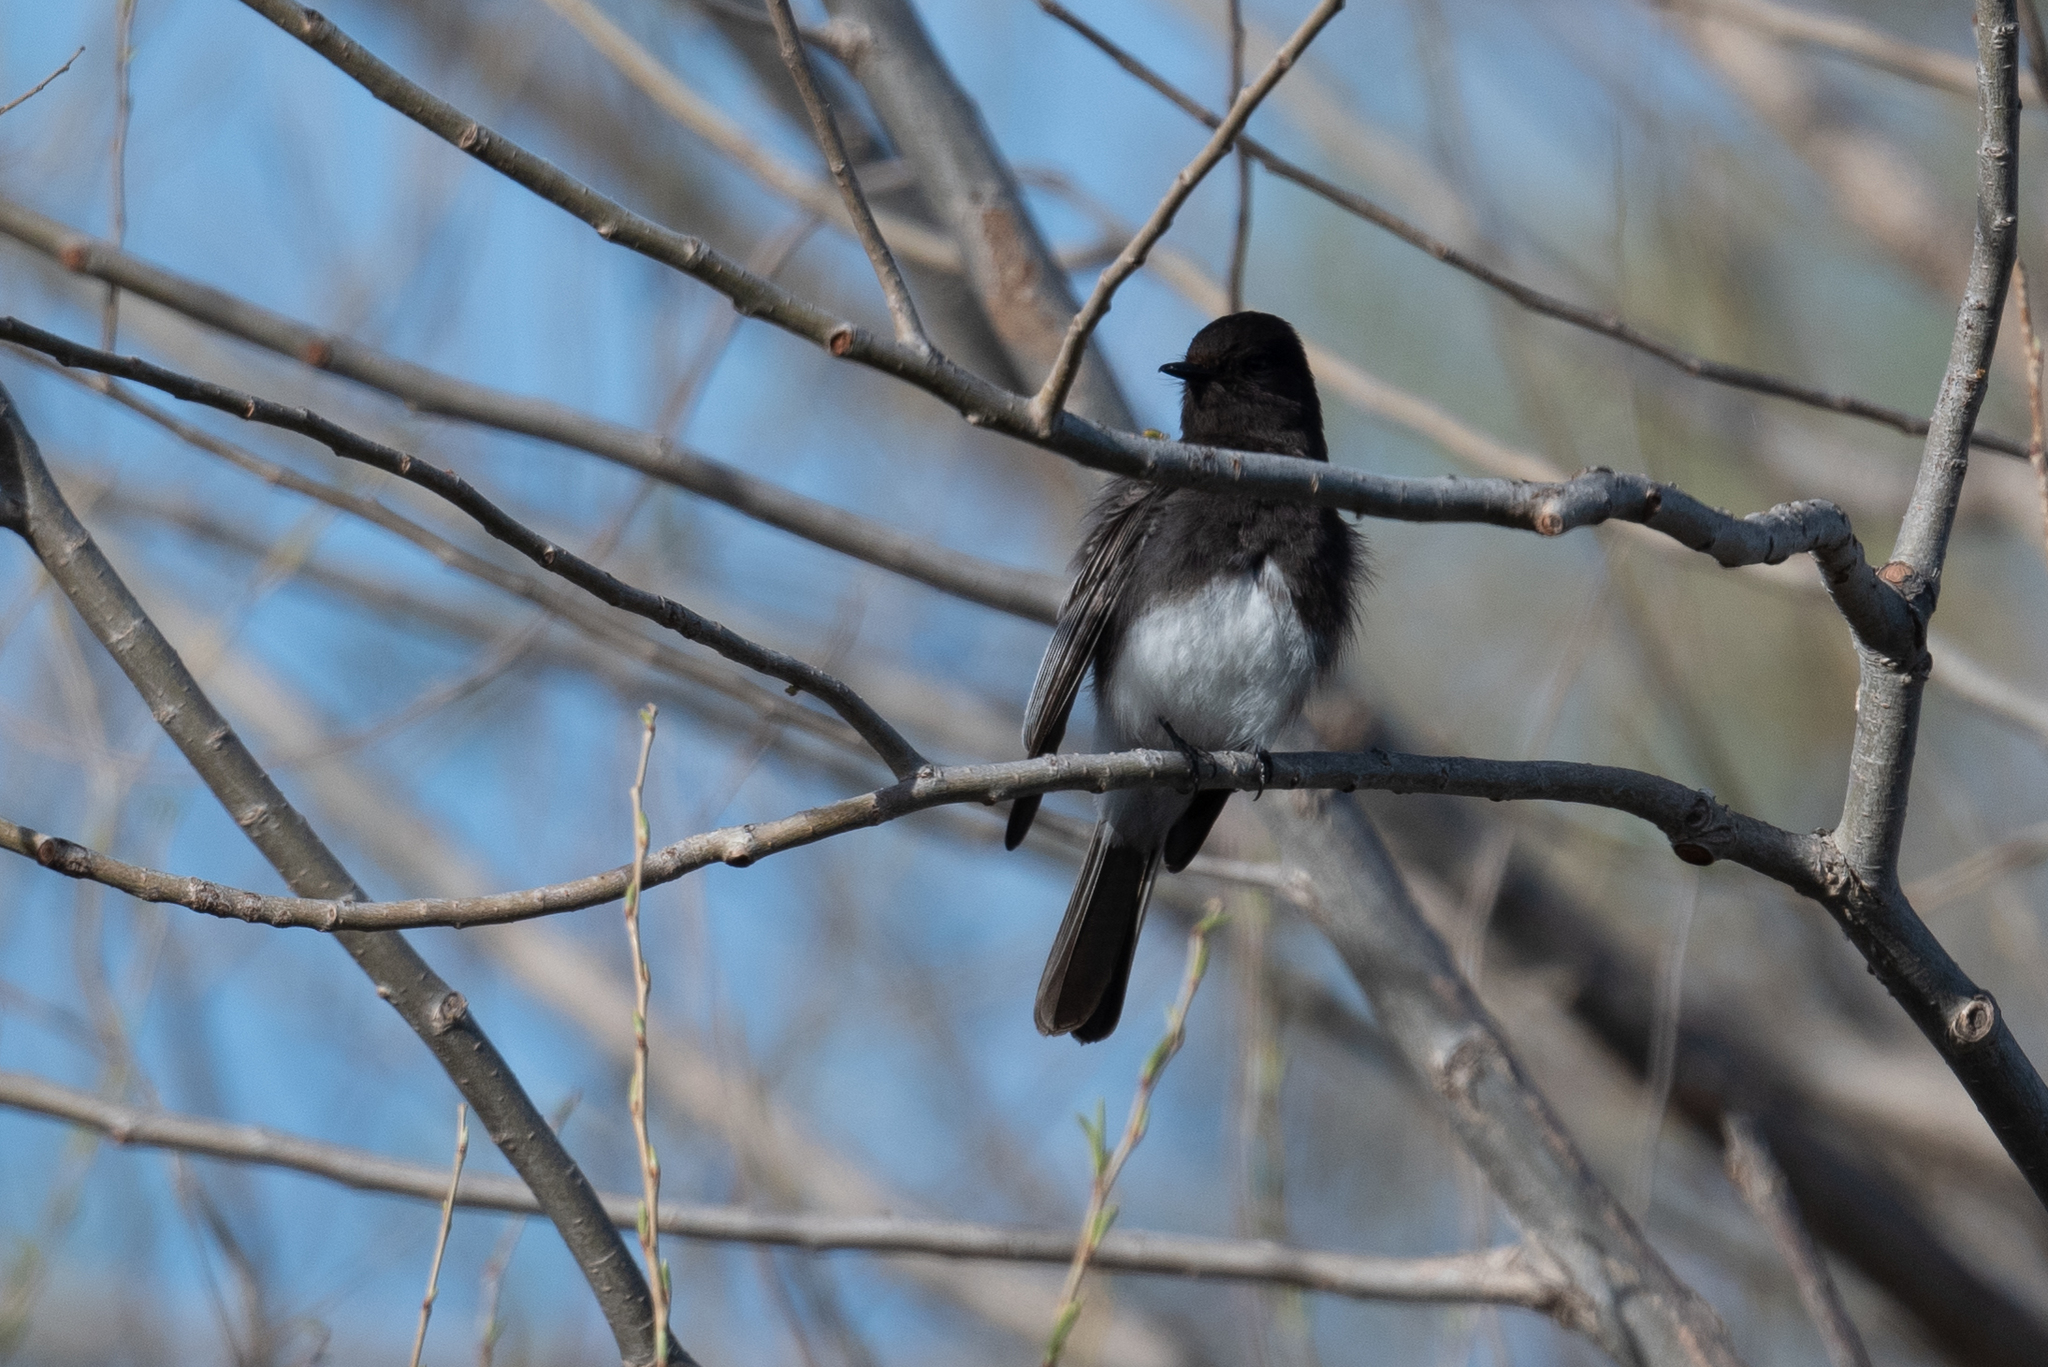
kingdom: Animalia
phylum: Chordata
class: Aves
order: Passeriformes
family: Tyrannidae
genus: Sayornis
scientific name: Sayornis nigricans
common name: Black phoebe
